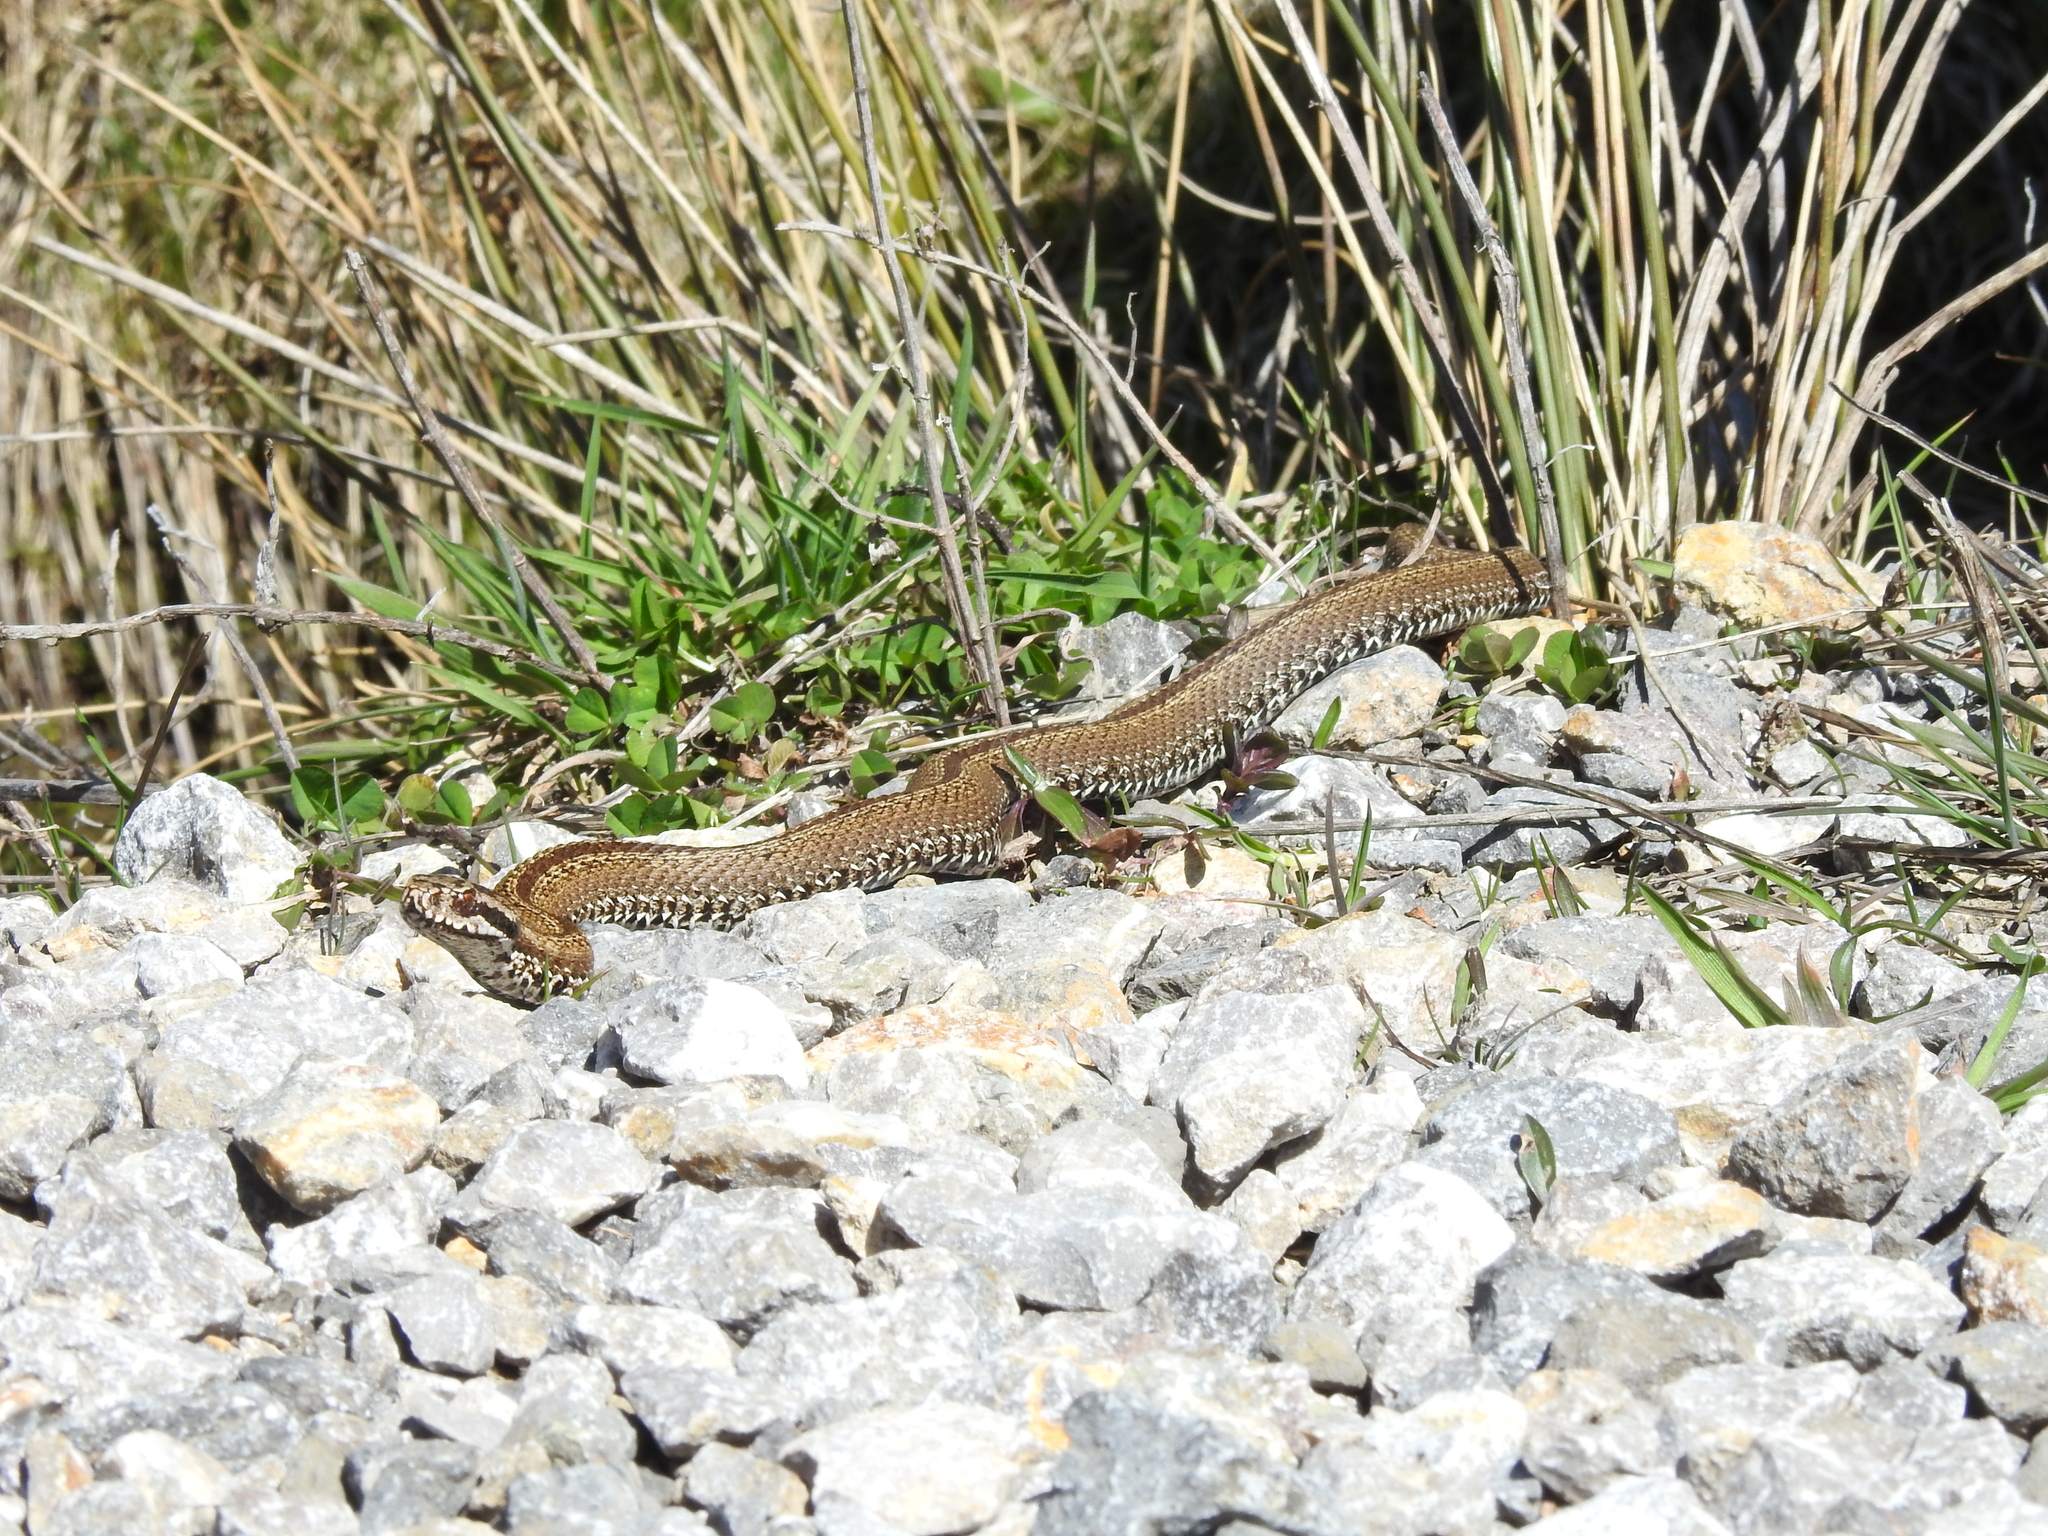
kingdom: Animalia
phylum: Chordata
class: Squamata
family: Viperidae
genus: Vipera
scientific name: Vipera seoanei
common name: Portugese viper
